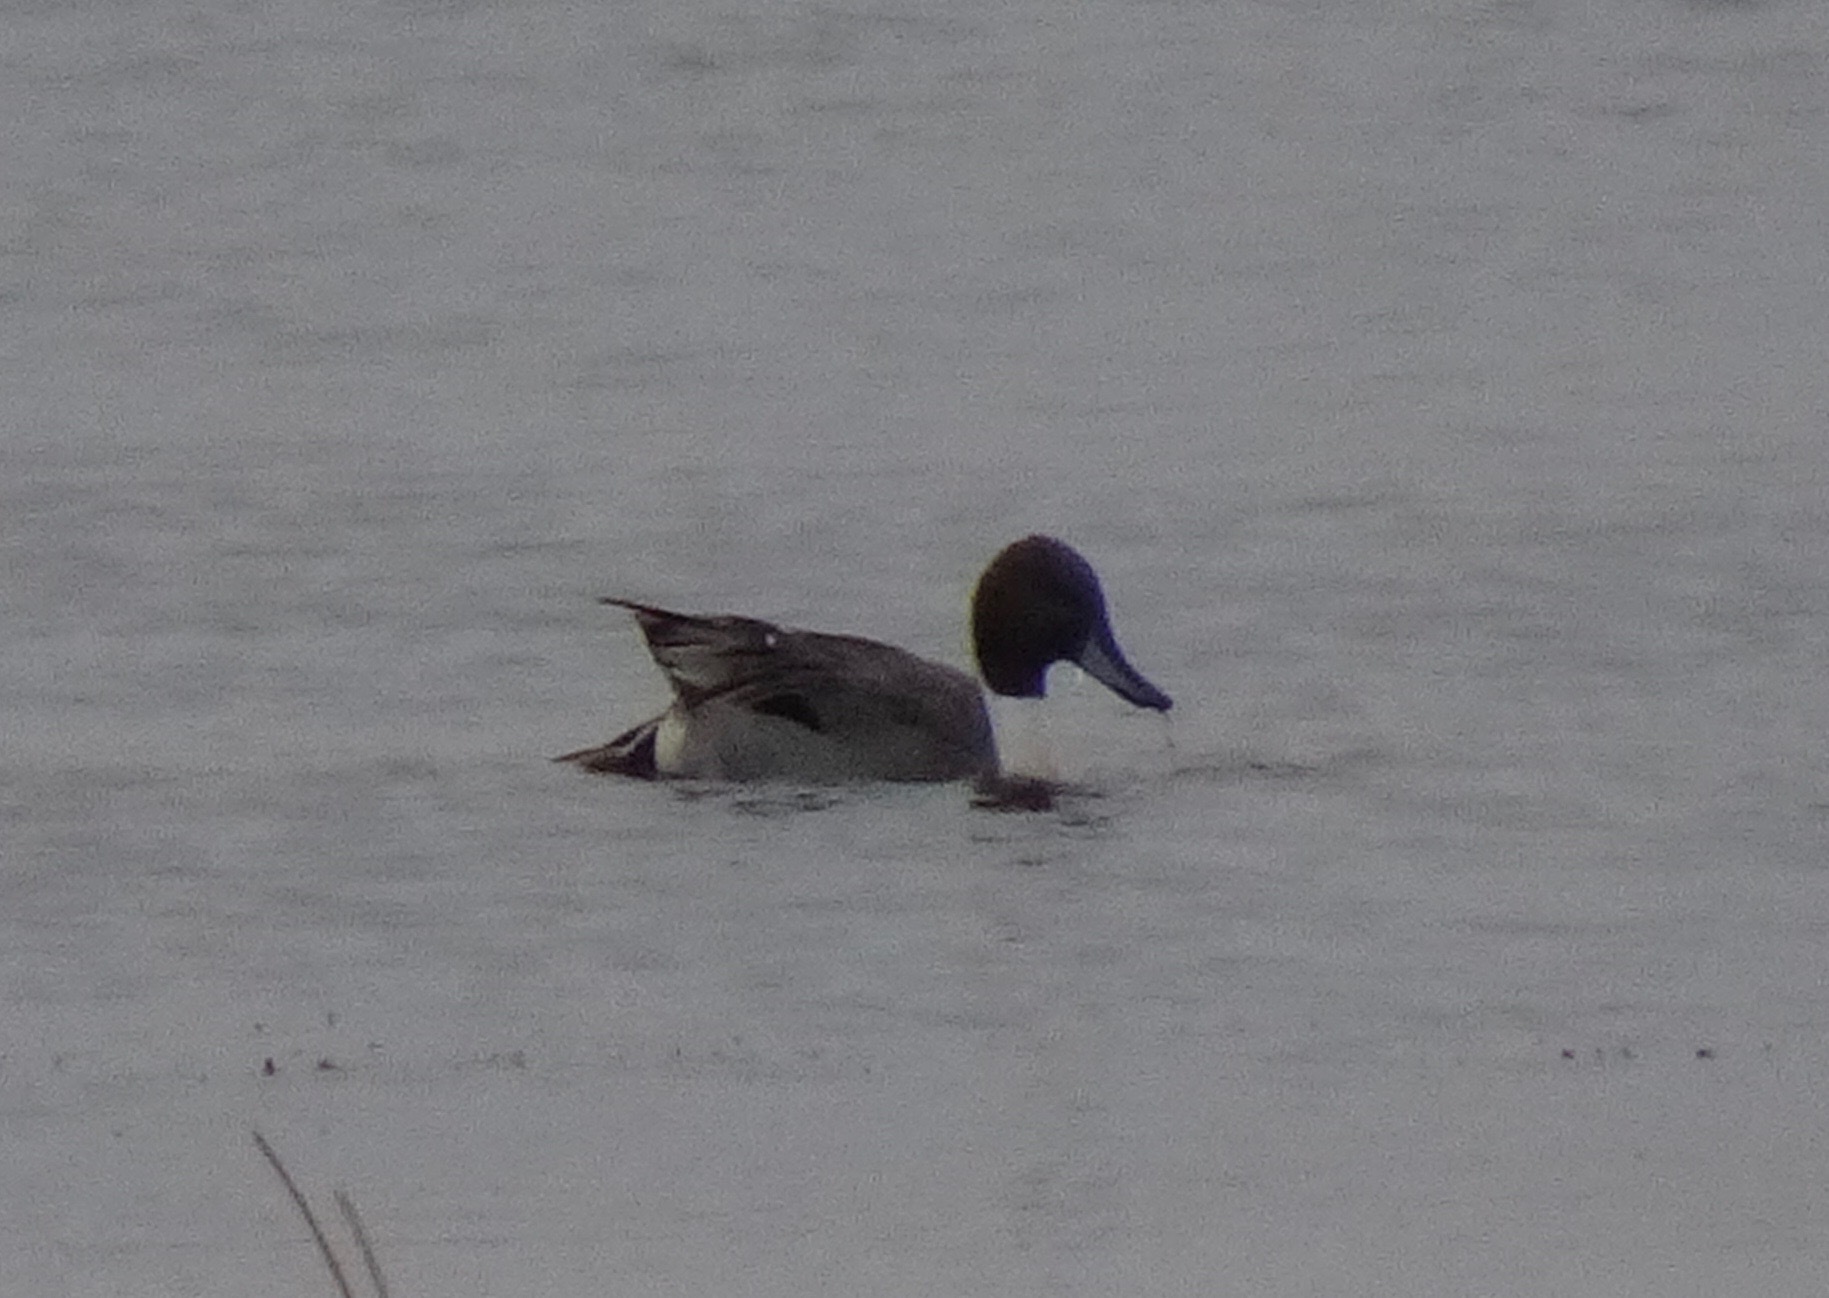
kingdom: Animalia
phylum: Chordata
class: Aves
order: Anseriformes
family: Anatidae
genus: Anas
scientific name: Anas acuta
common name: Northern pintail
